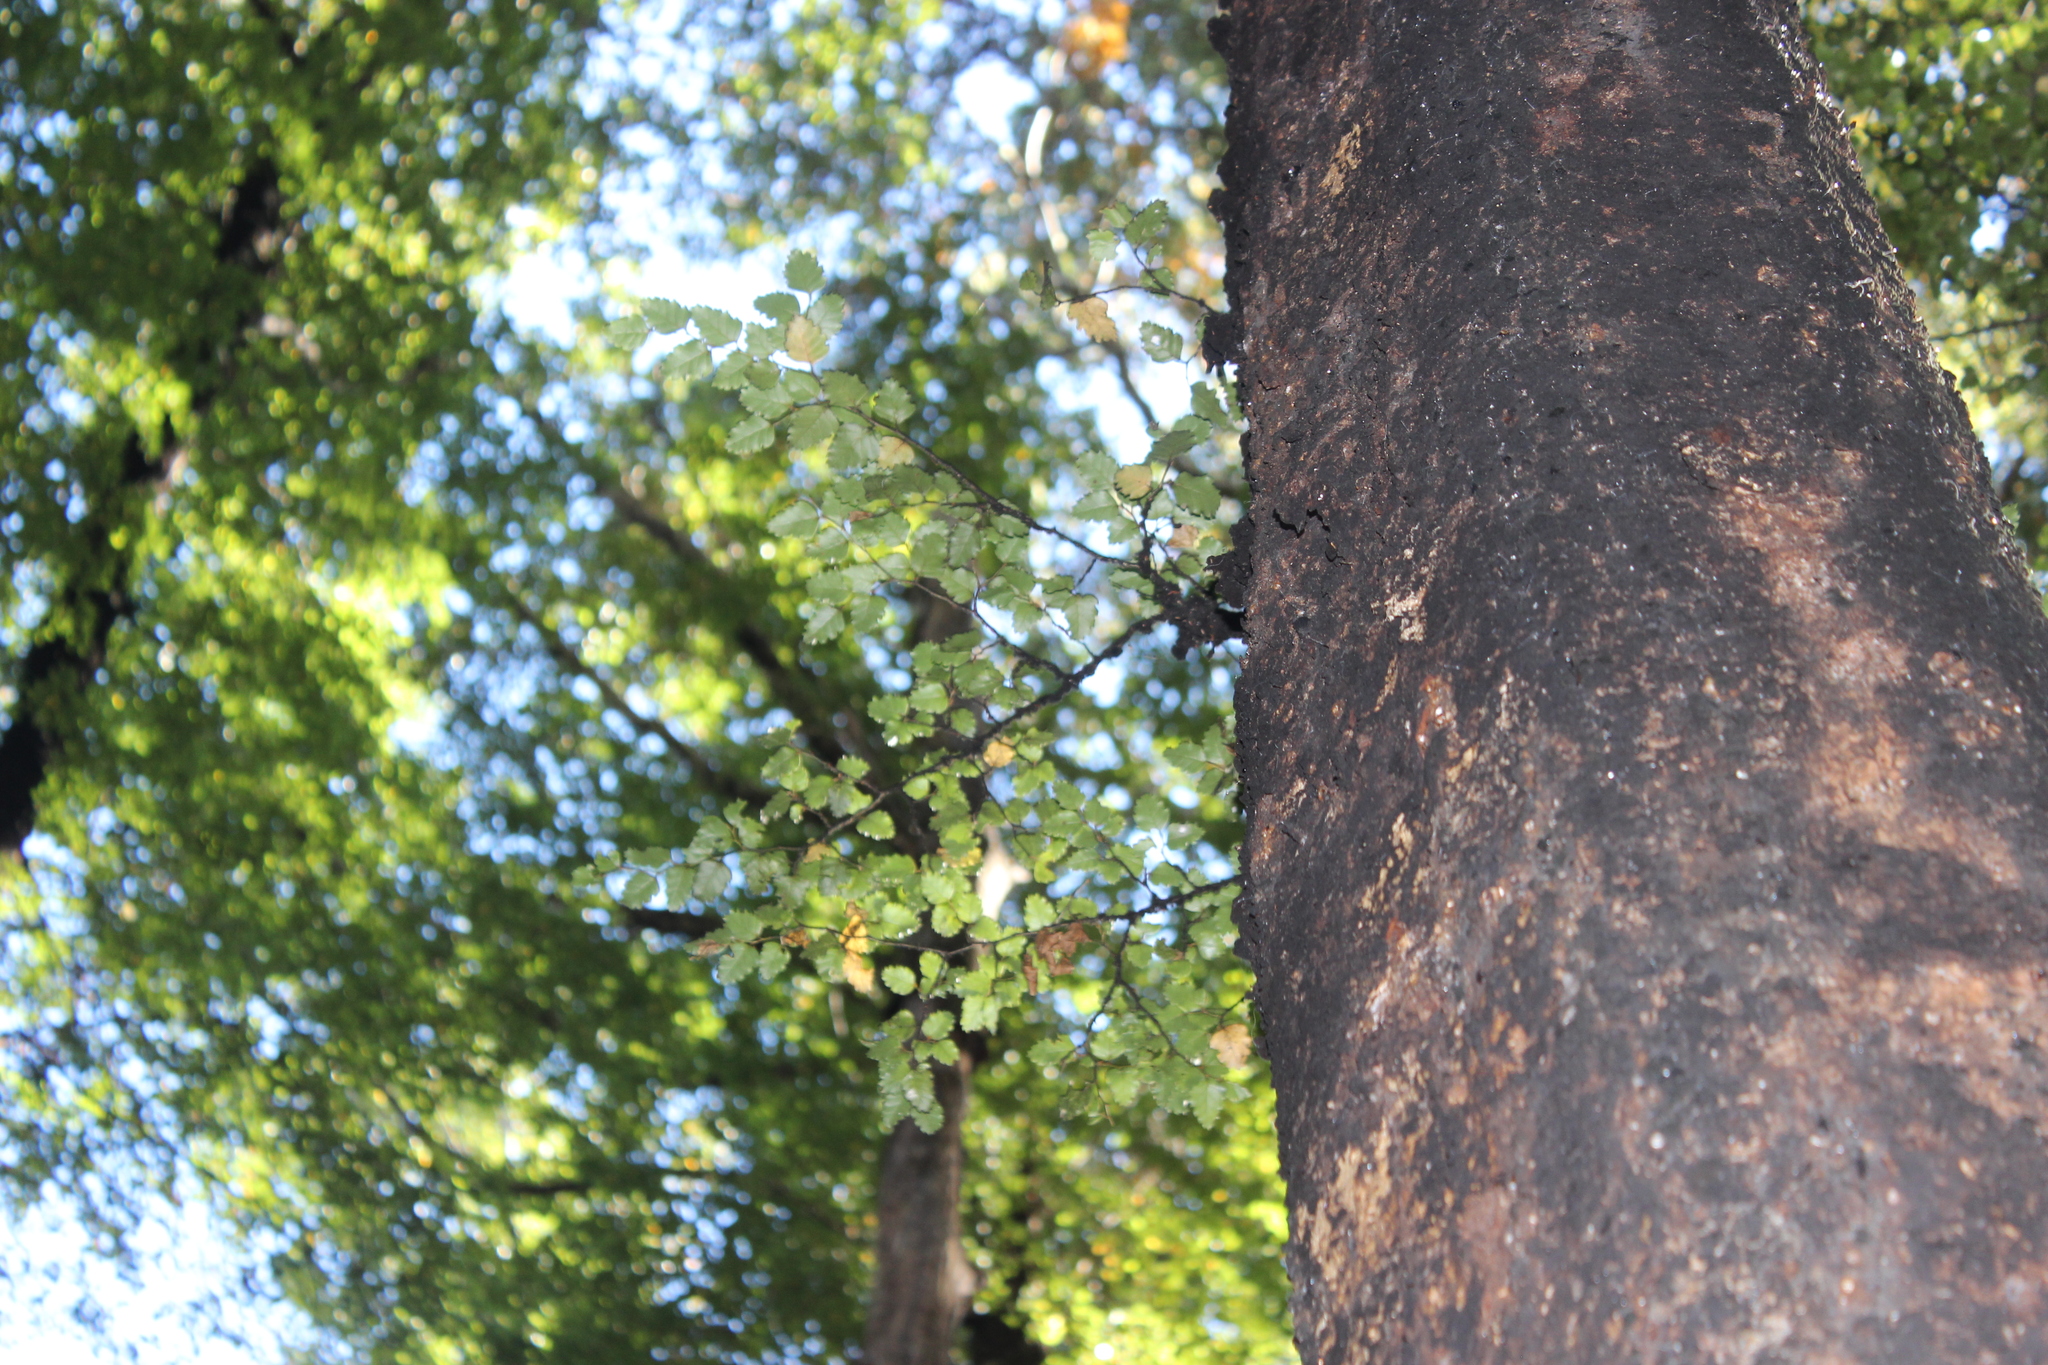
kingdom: Plantae
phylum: Tracheophyta
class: Magnoliopsida
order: Fagales
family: Nothofagaceae
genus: Nothofagus
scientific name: Nothofagus fusca
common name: Red beech
